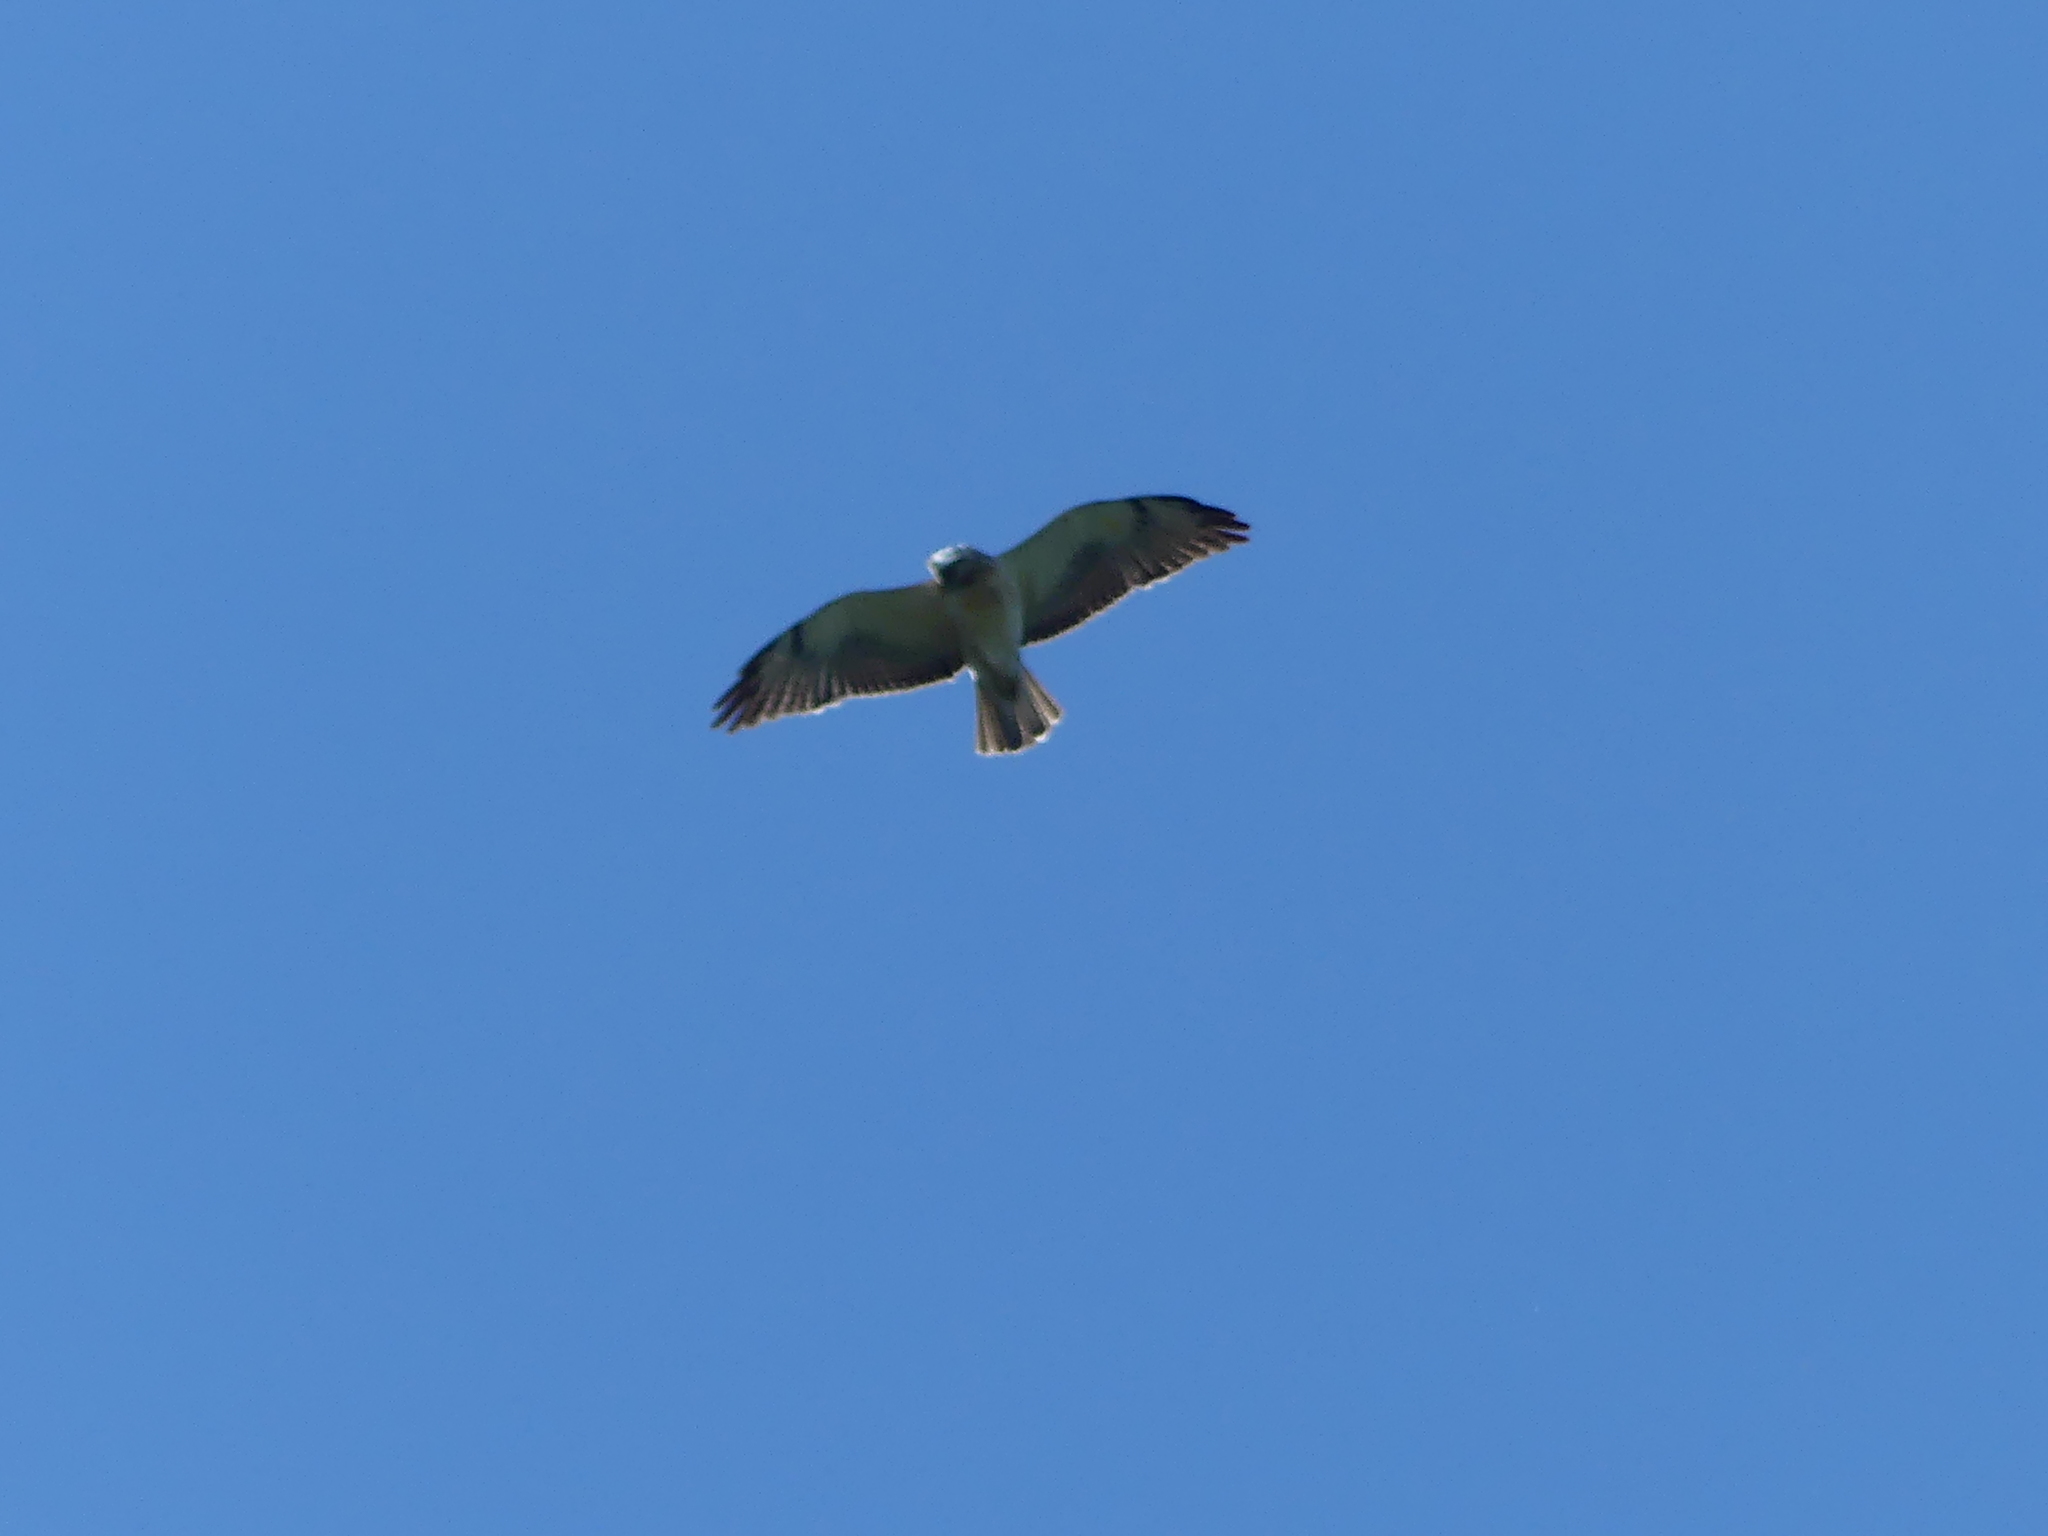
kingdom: Animalia
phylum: Chordata
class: Aves
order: Accipitriformes
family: Accipitridae
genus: Buteo
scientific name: Buteo swainsoni
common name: Swainson's hawk
